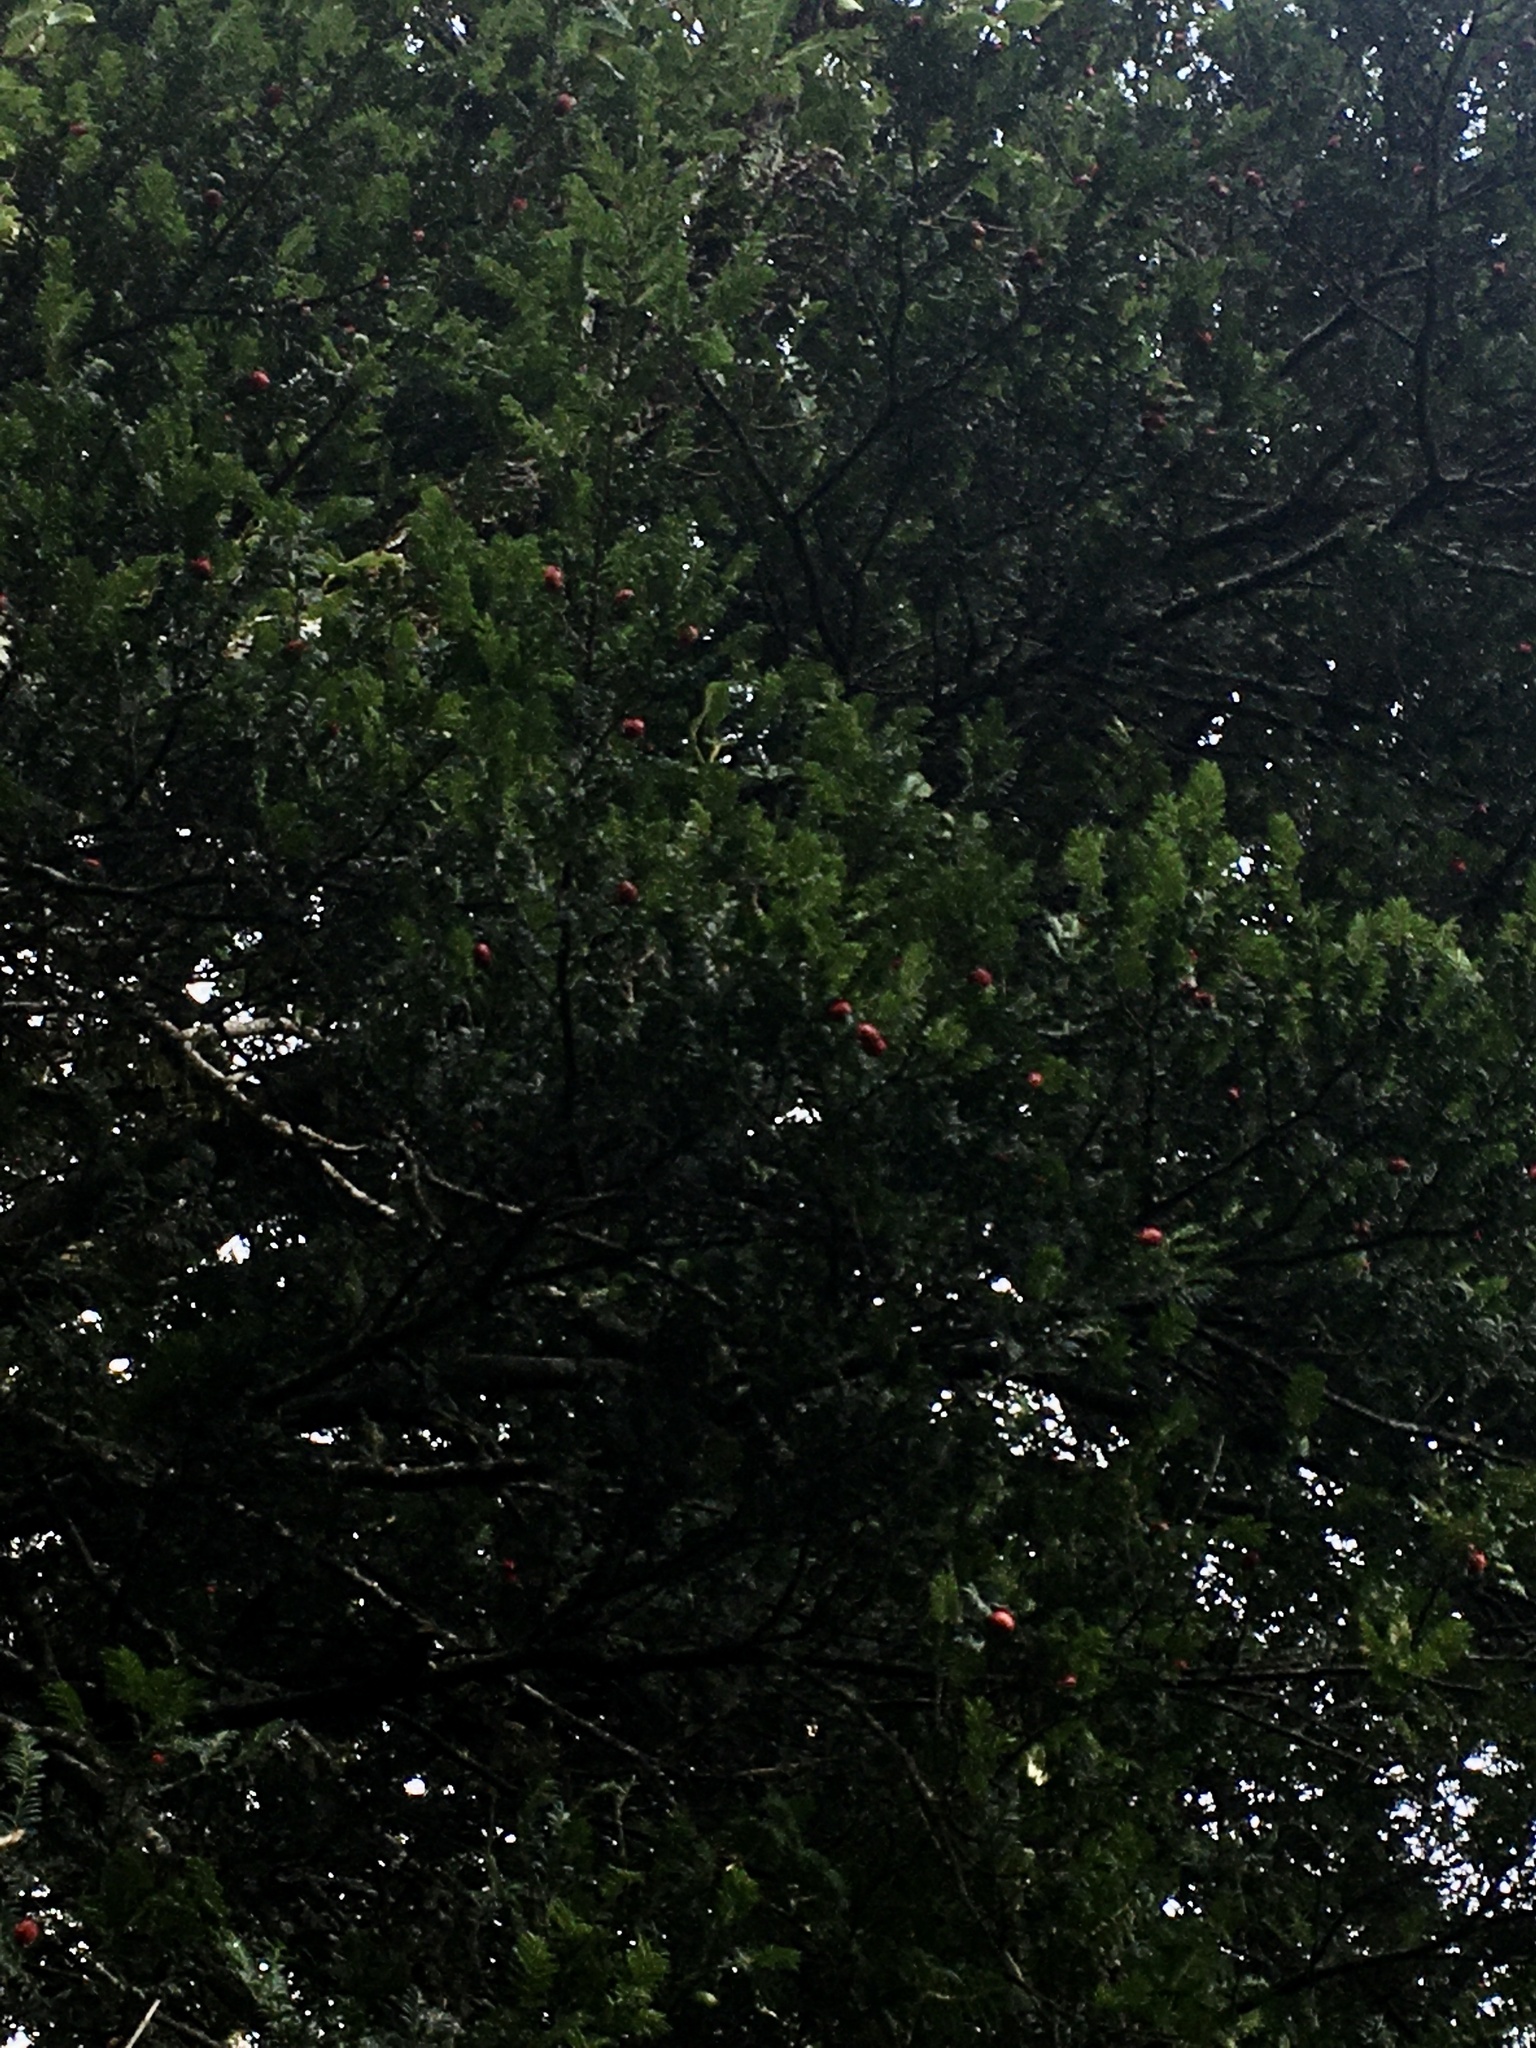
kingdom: Plantae
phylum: Tracheophyta
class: Pinopsida
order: Pinales
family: Podocarpaceae
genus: Prumnopitys
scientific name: Prumnopitys ferruginea
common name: Brown pine
